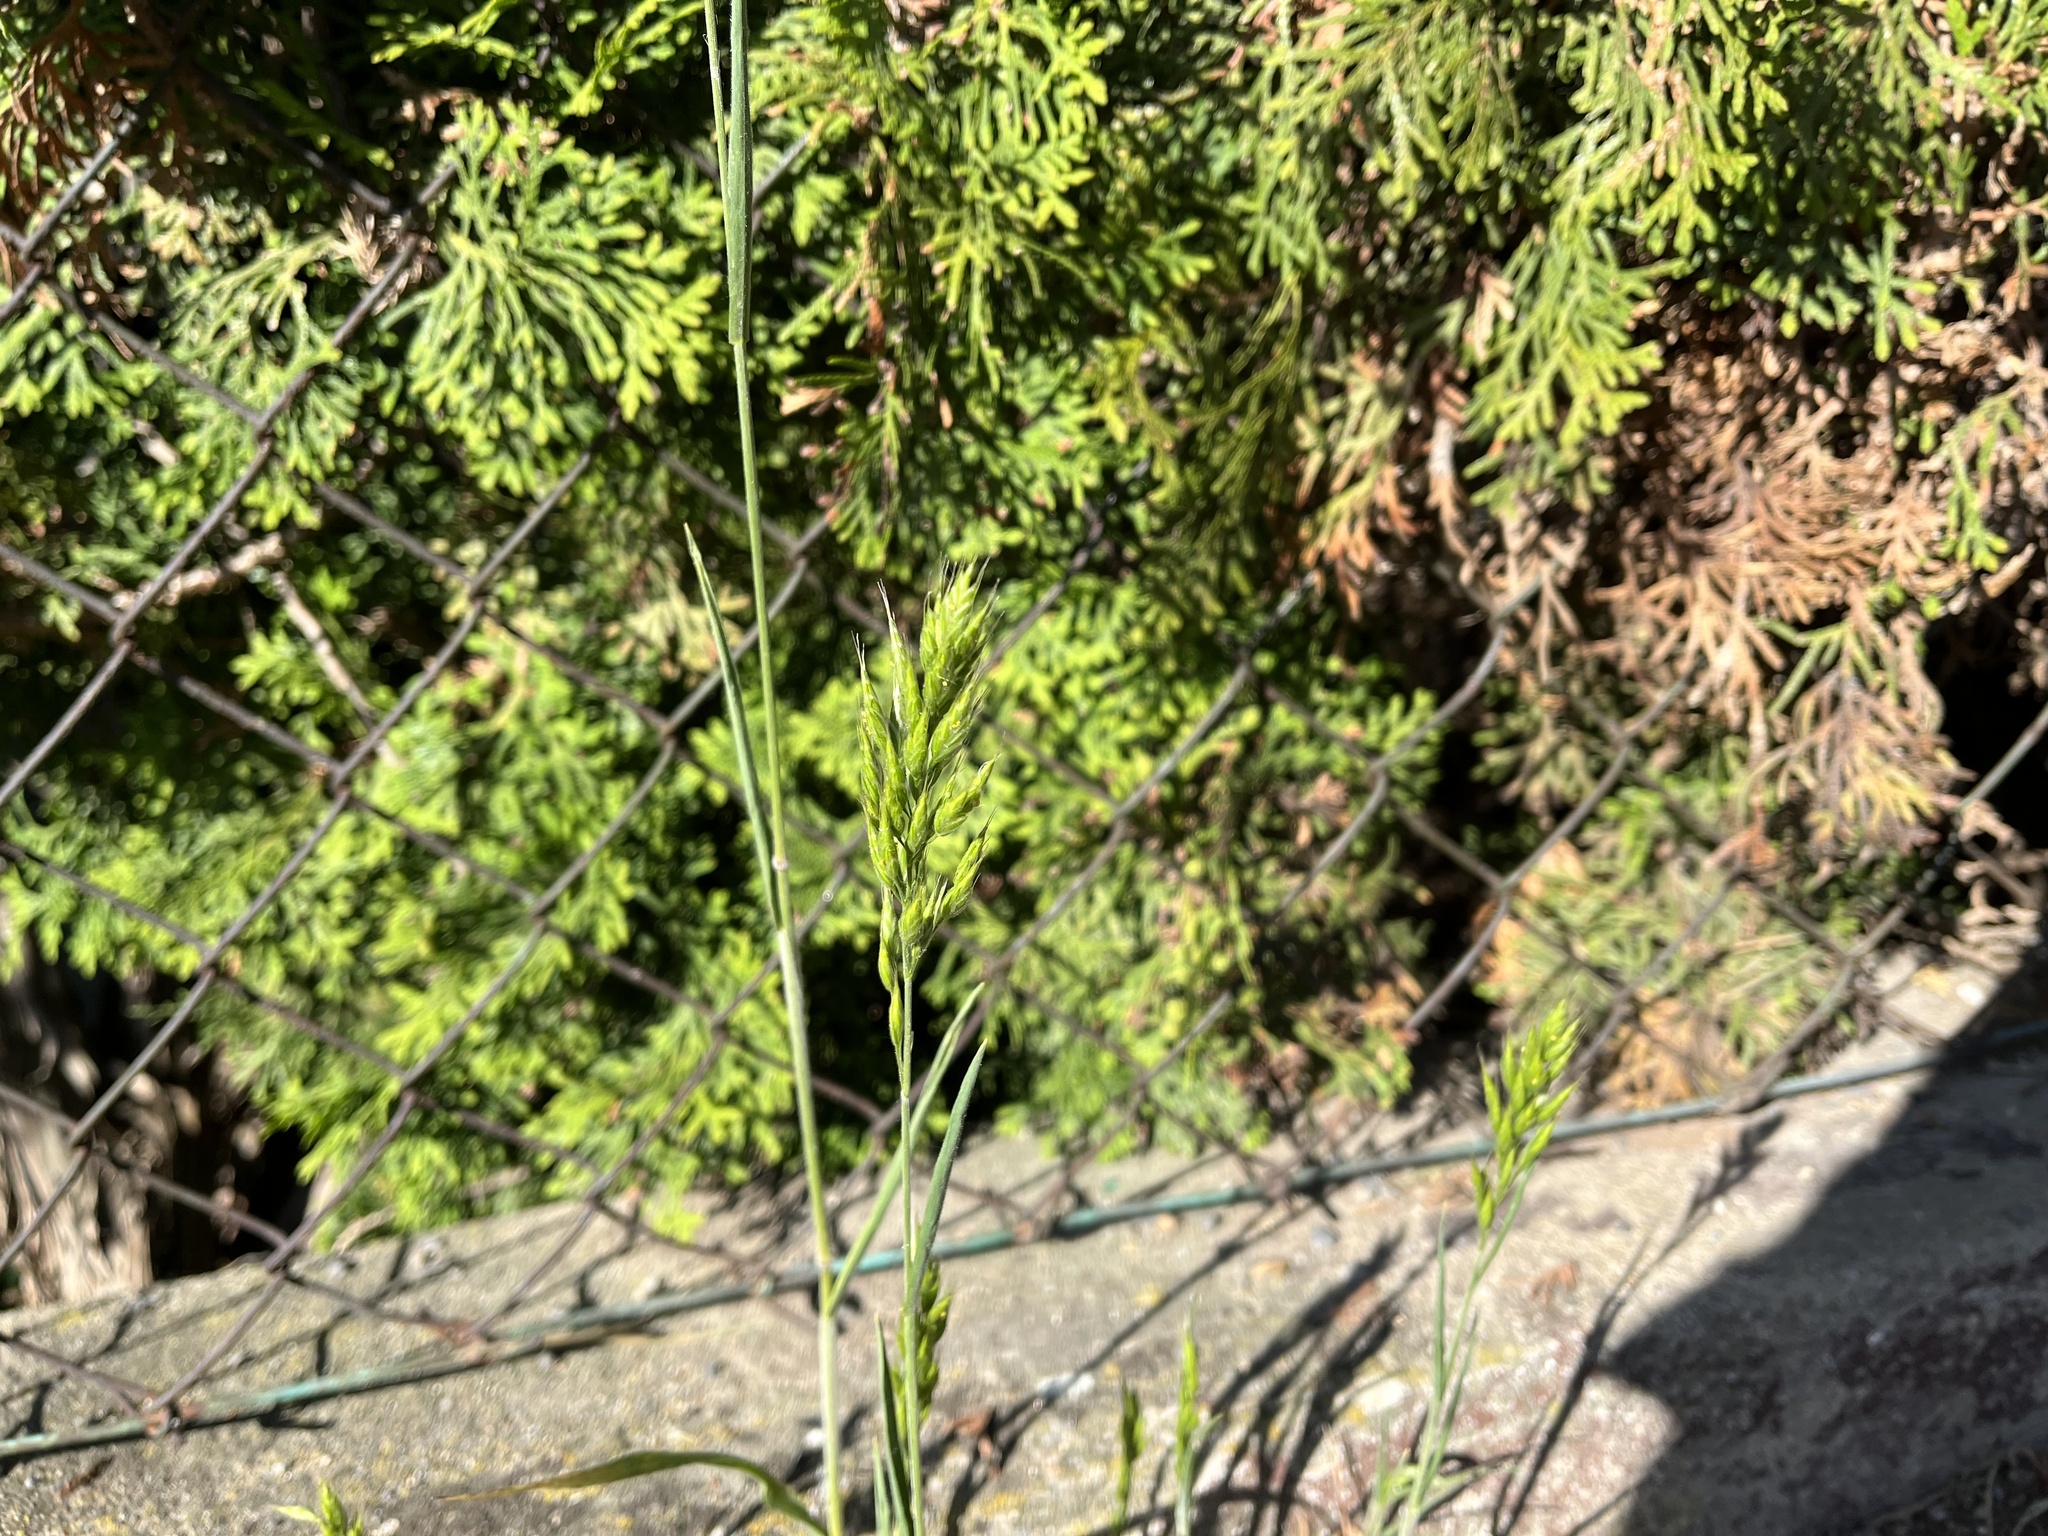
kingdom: Plantae
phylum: Tracheophyta
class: Liliopsida
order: Poales
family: Poaceae
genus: Bromus
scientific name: Bromus hordeaceus
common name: Soft brome
